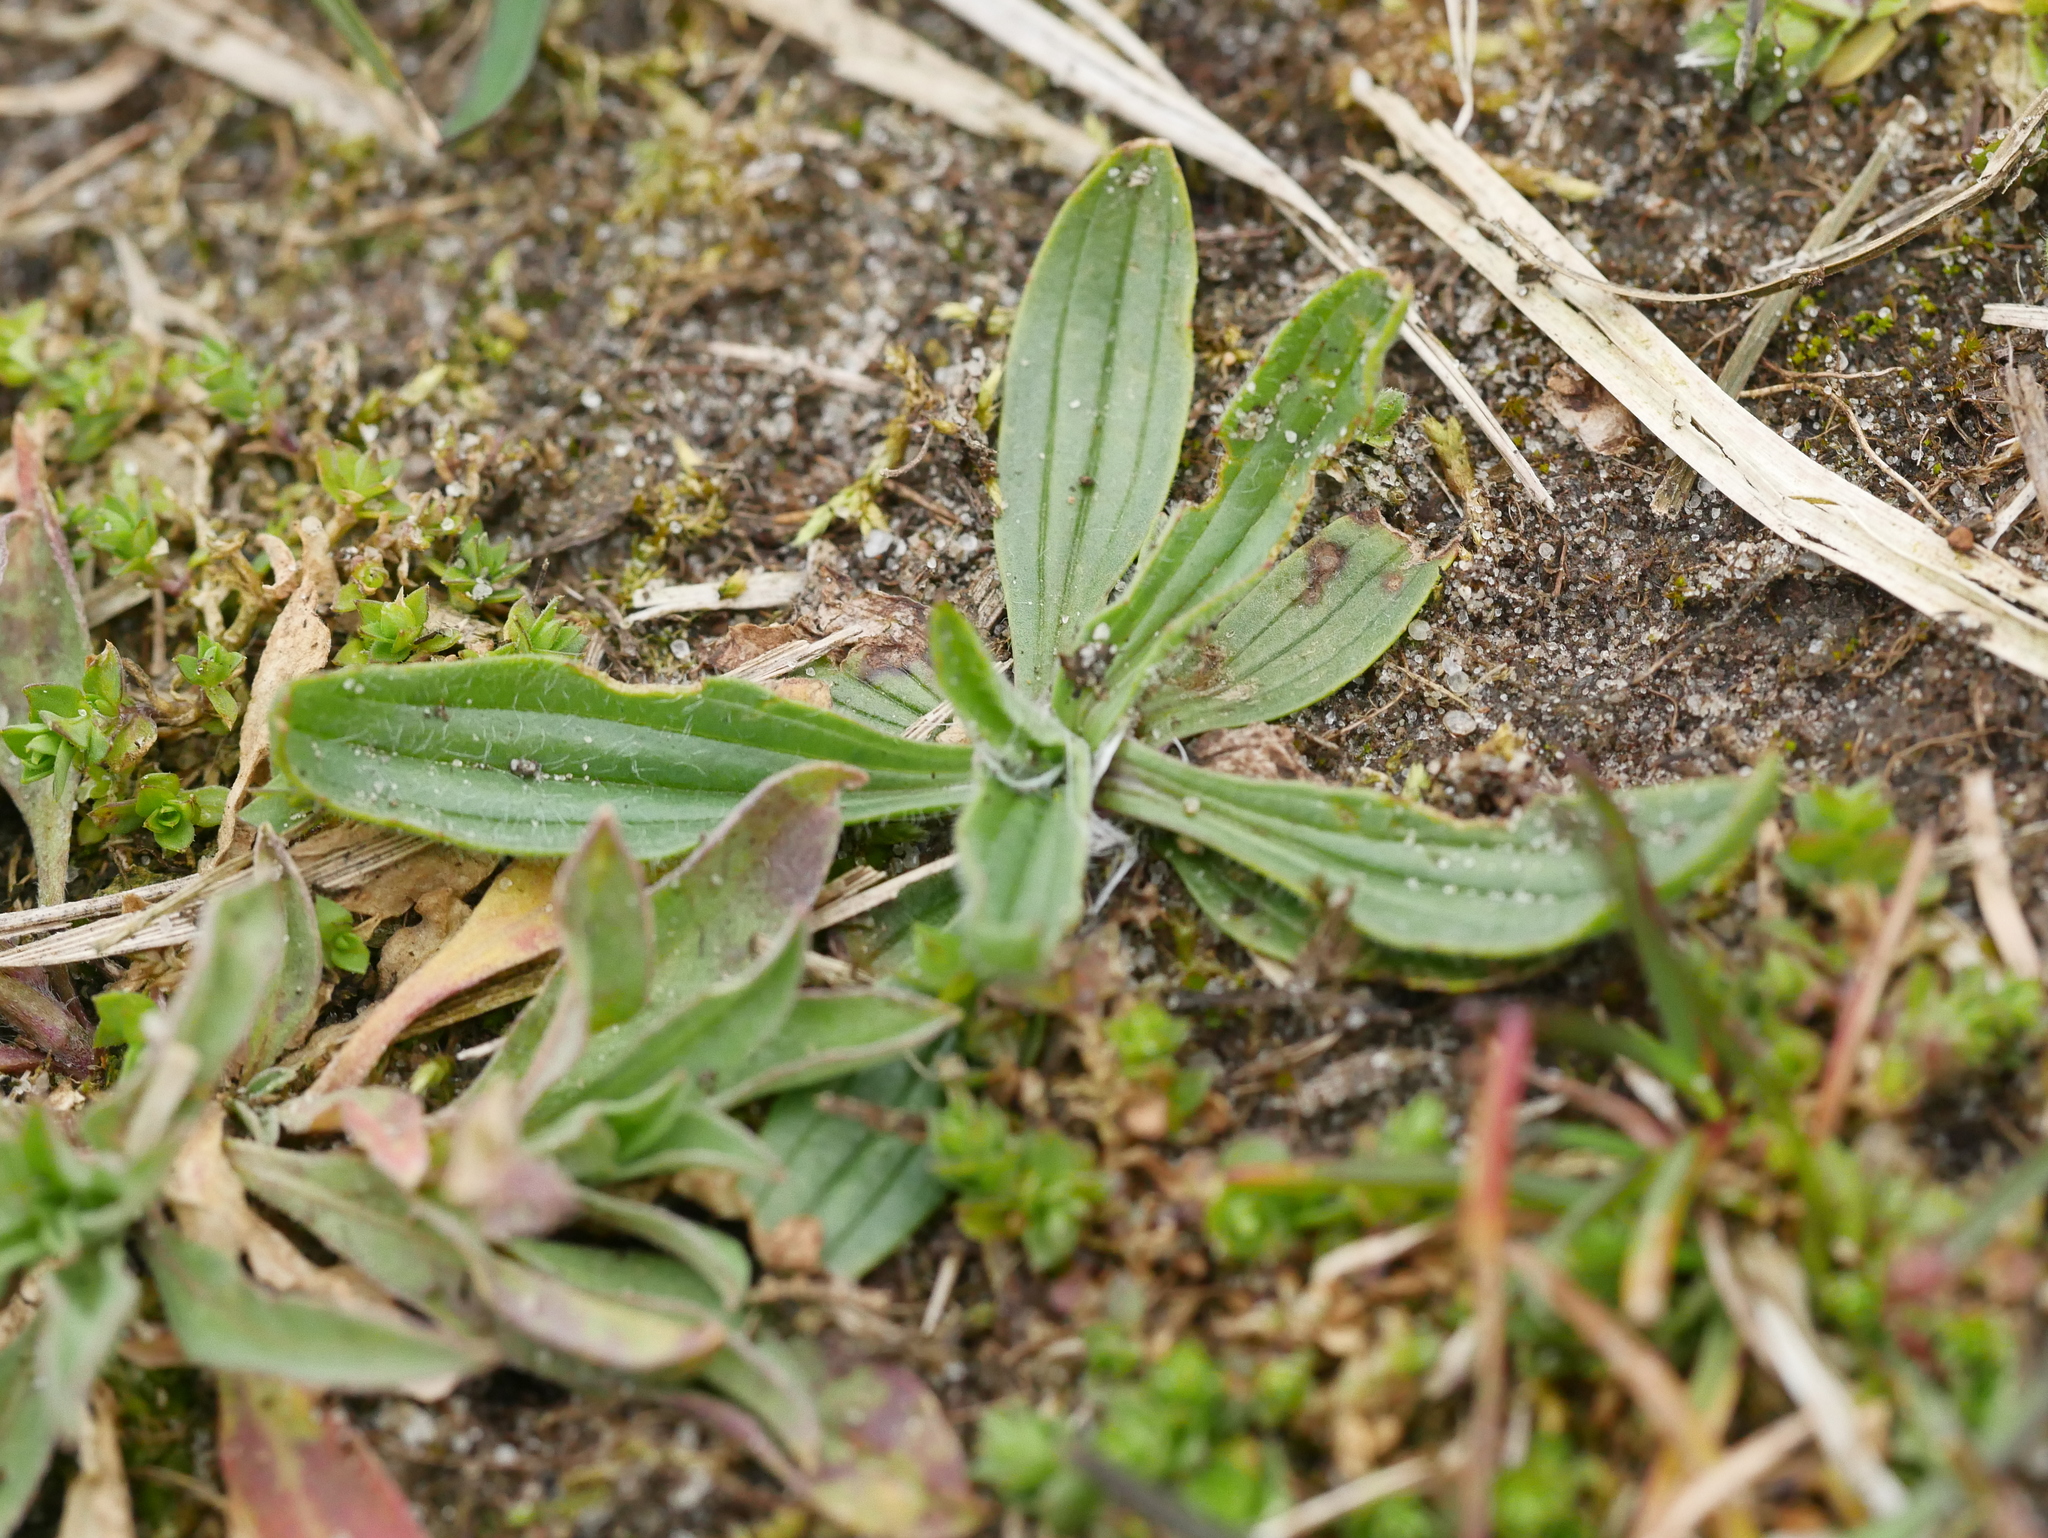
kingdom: Plantae
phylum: Tracheophyta
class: Magnoliopsida
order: Lamiales
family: Plantaginaceae
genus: Plantago
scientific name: Plantago lanceolata
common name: Ribwort plantain
